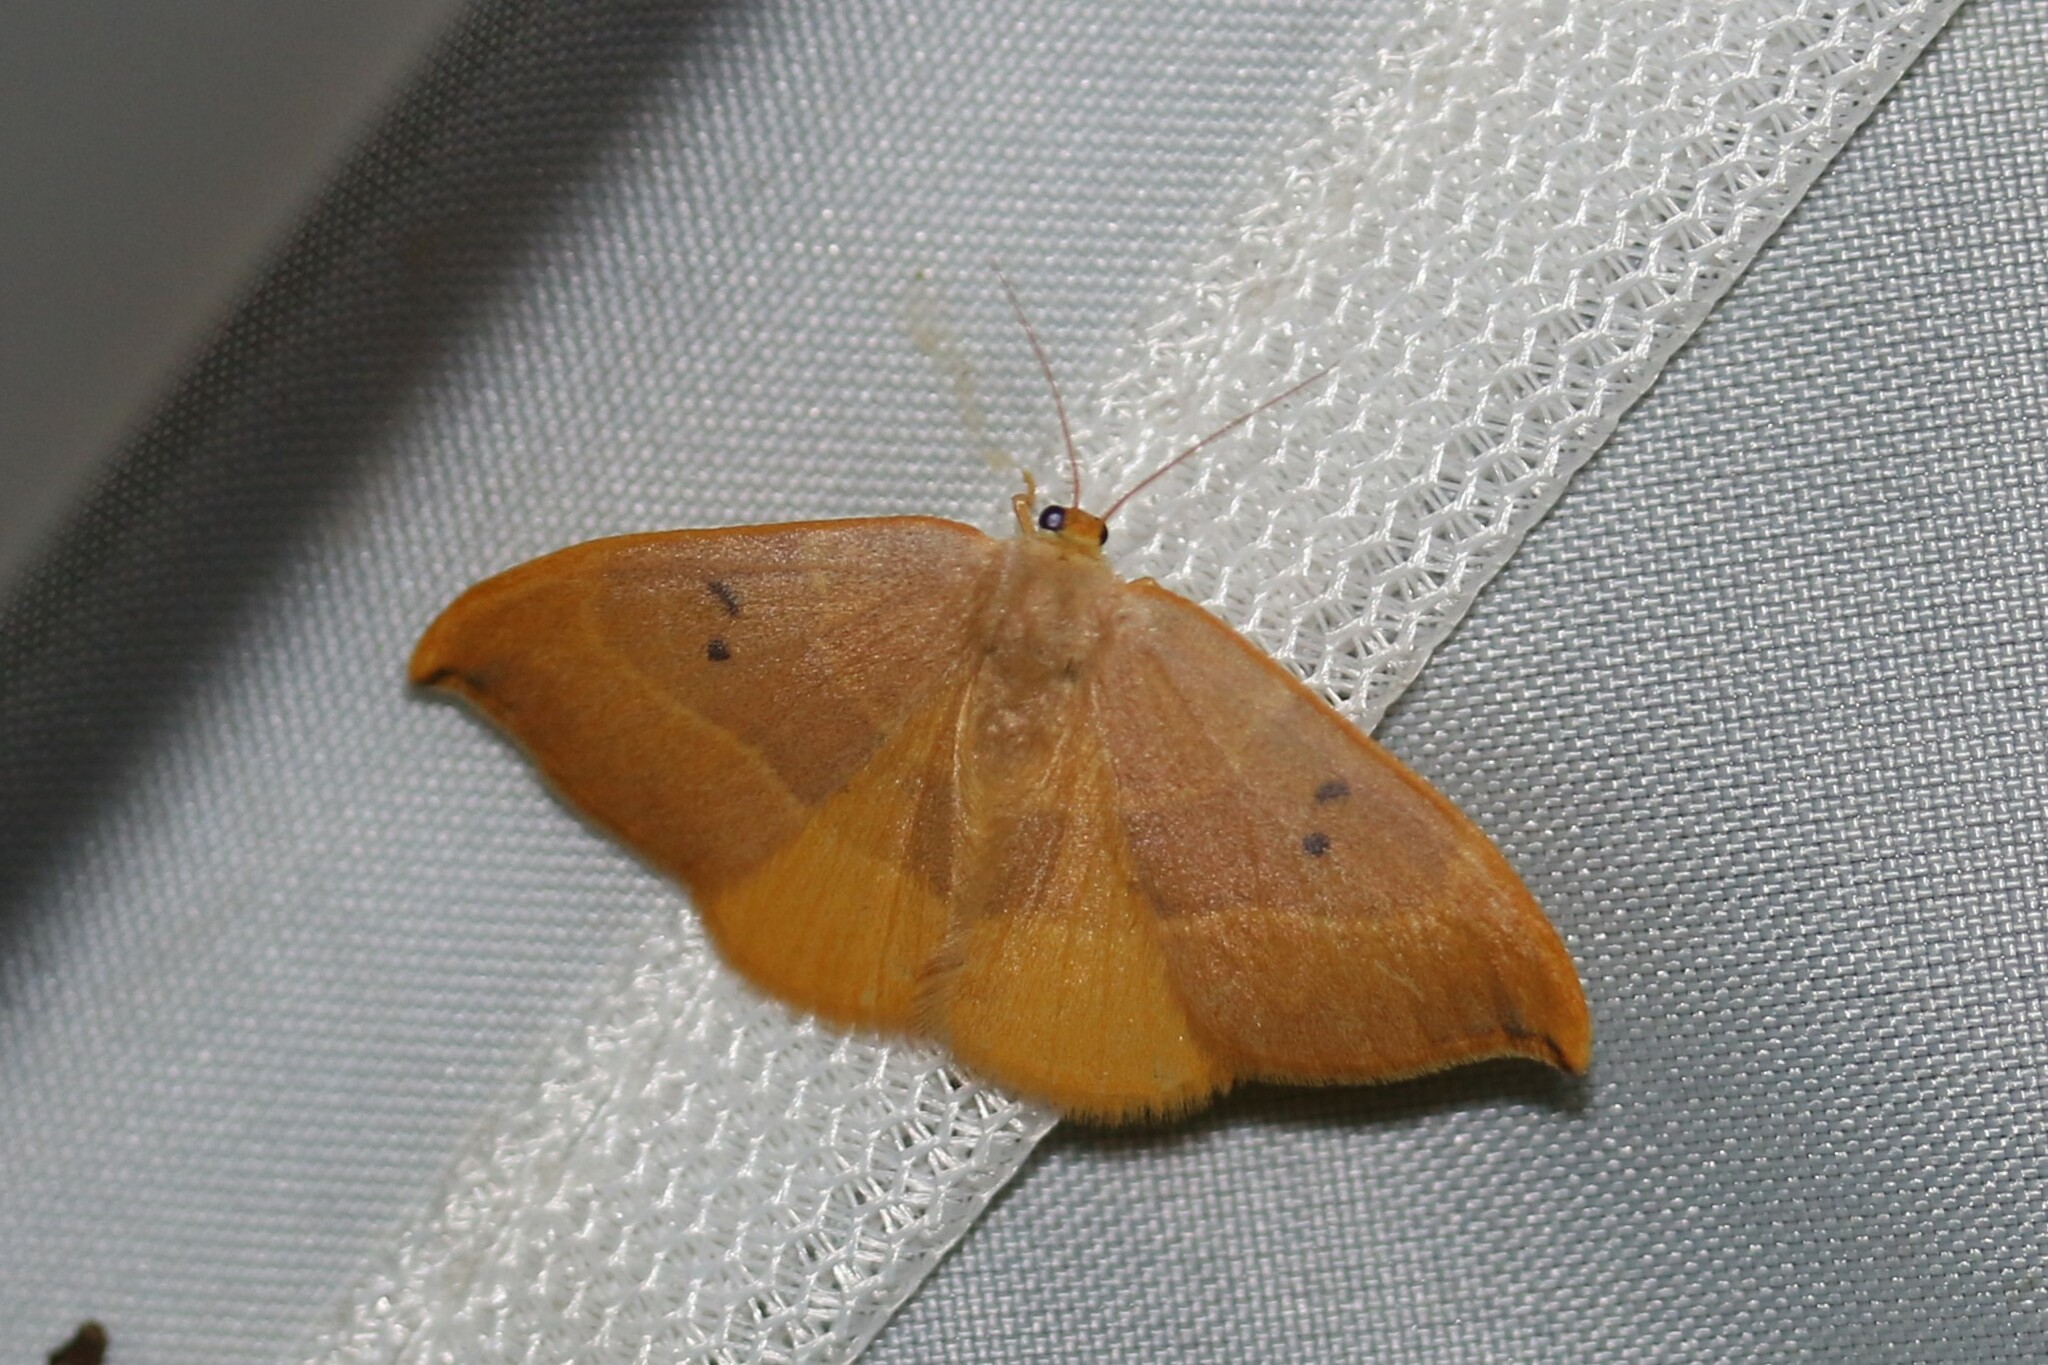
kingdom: Animalia
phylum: Arthropoda
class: Insecta
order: Lepidoptera
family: Drepanidae
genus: Watsonalla
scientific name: Watsonalla binaria
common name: Oak hook-tip
